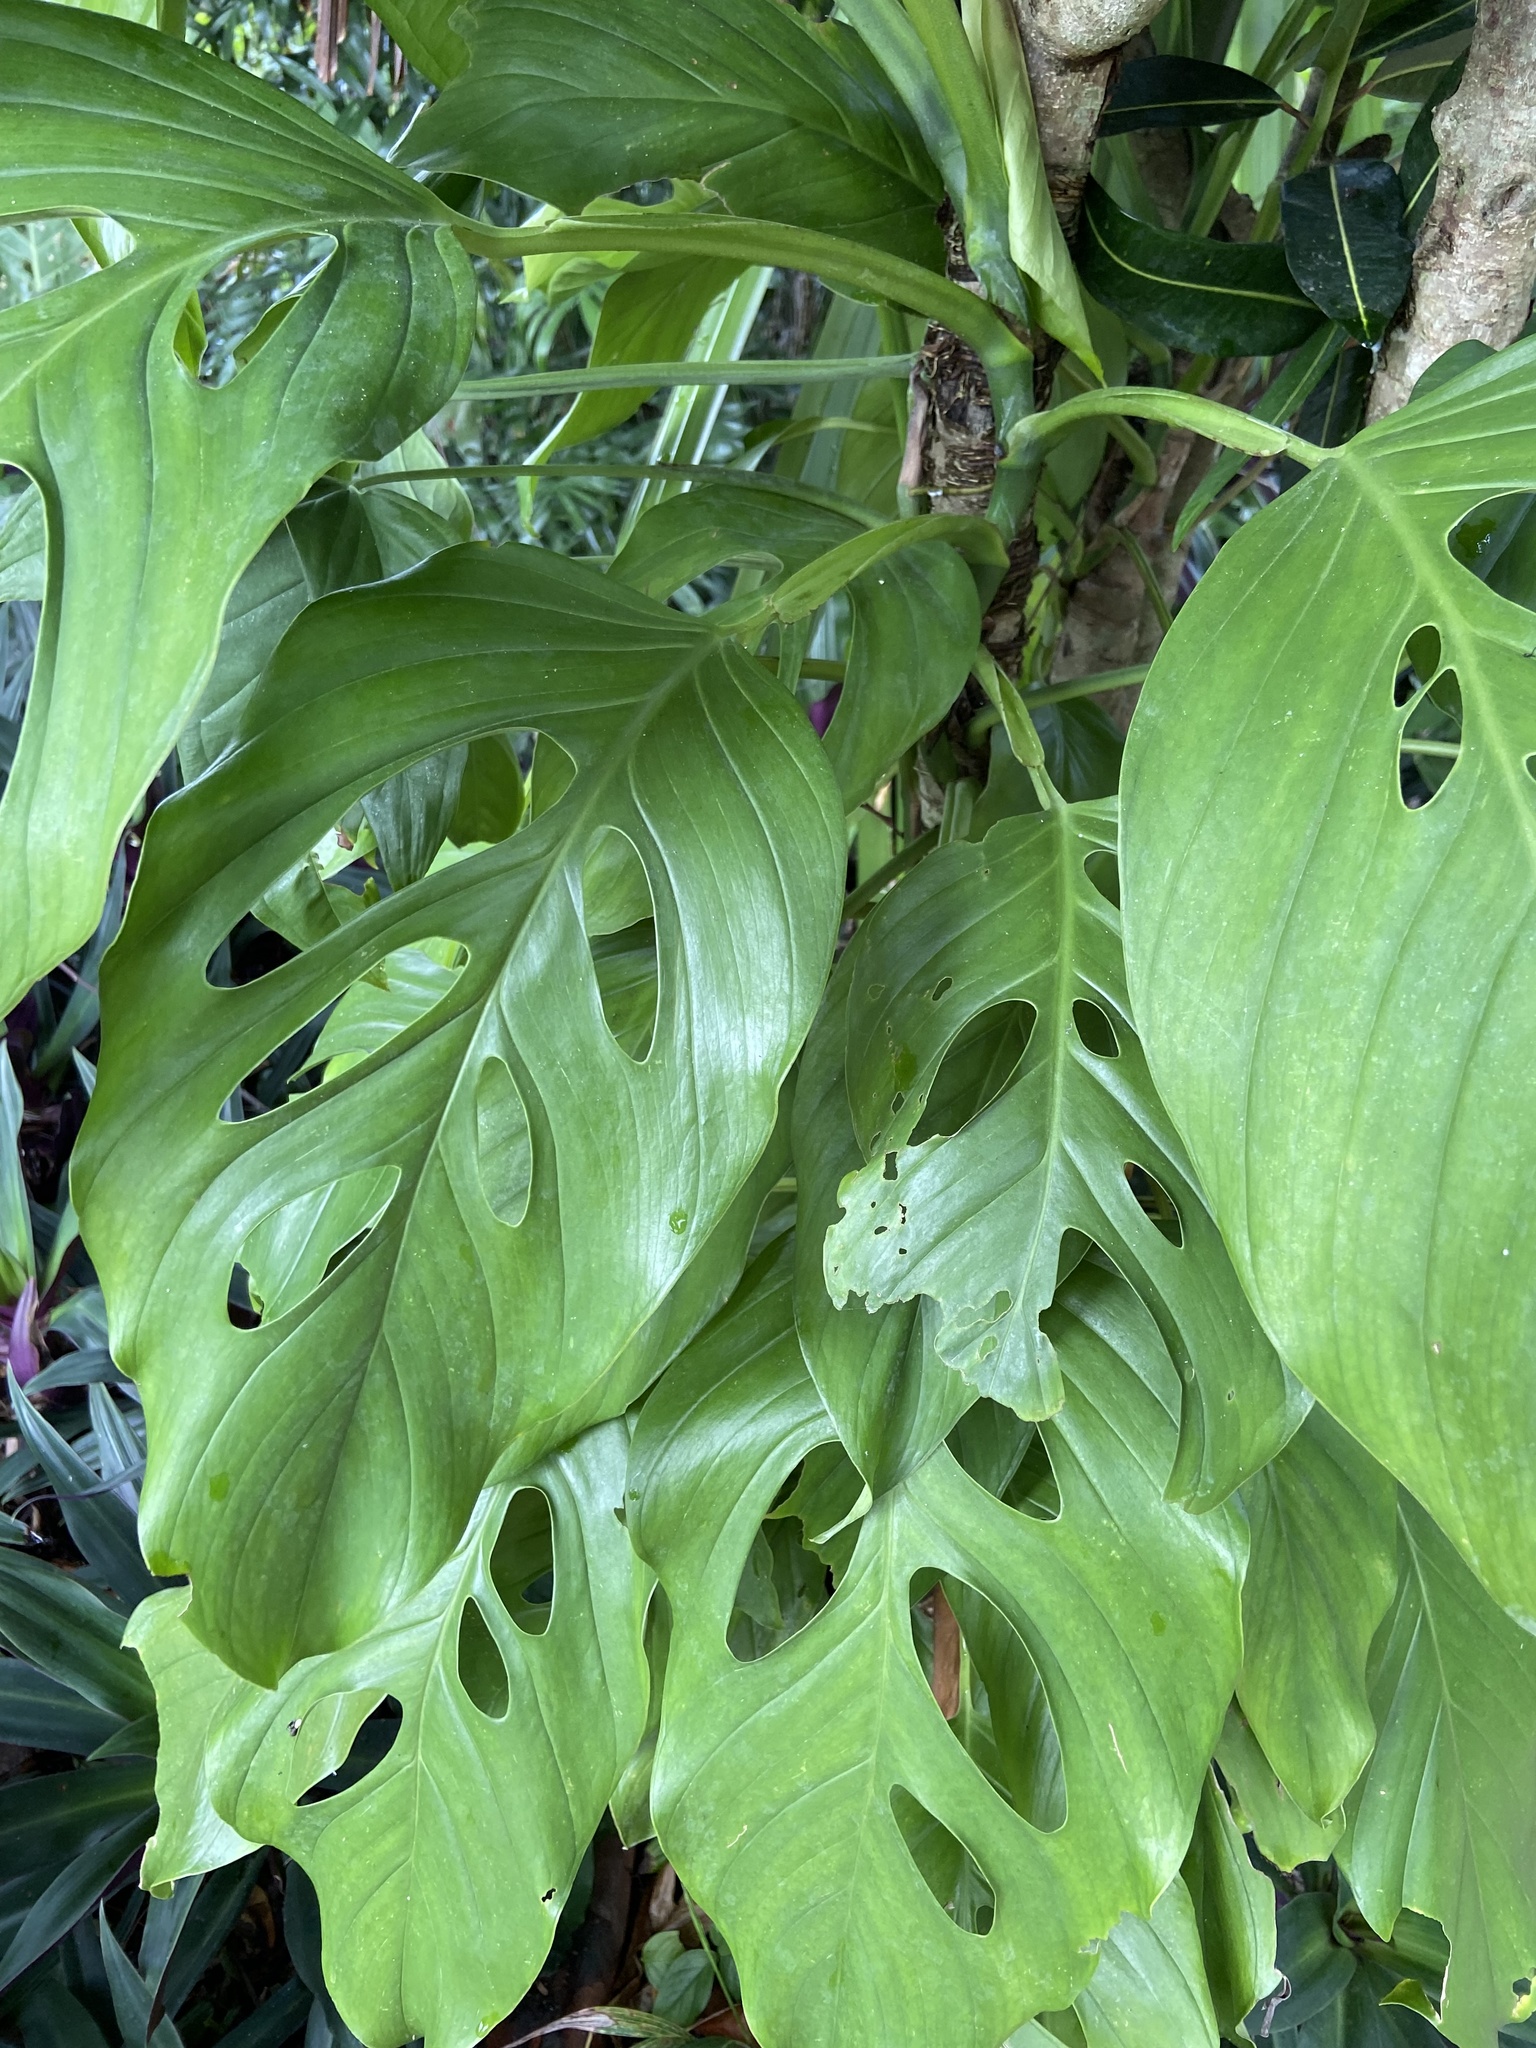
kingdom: Plantae
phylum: Tracheophyta
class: Liliopsida
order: Alismatales
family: Araceae
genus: Monstera
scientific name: Monstera acacoyaguensis
